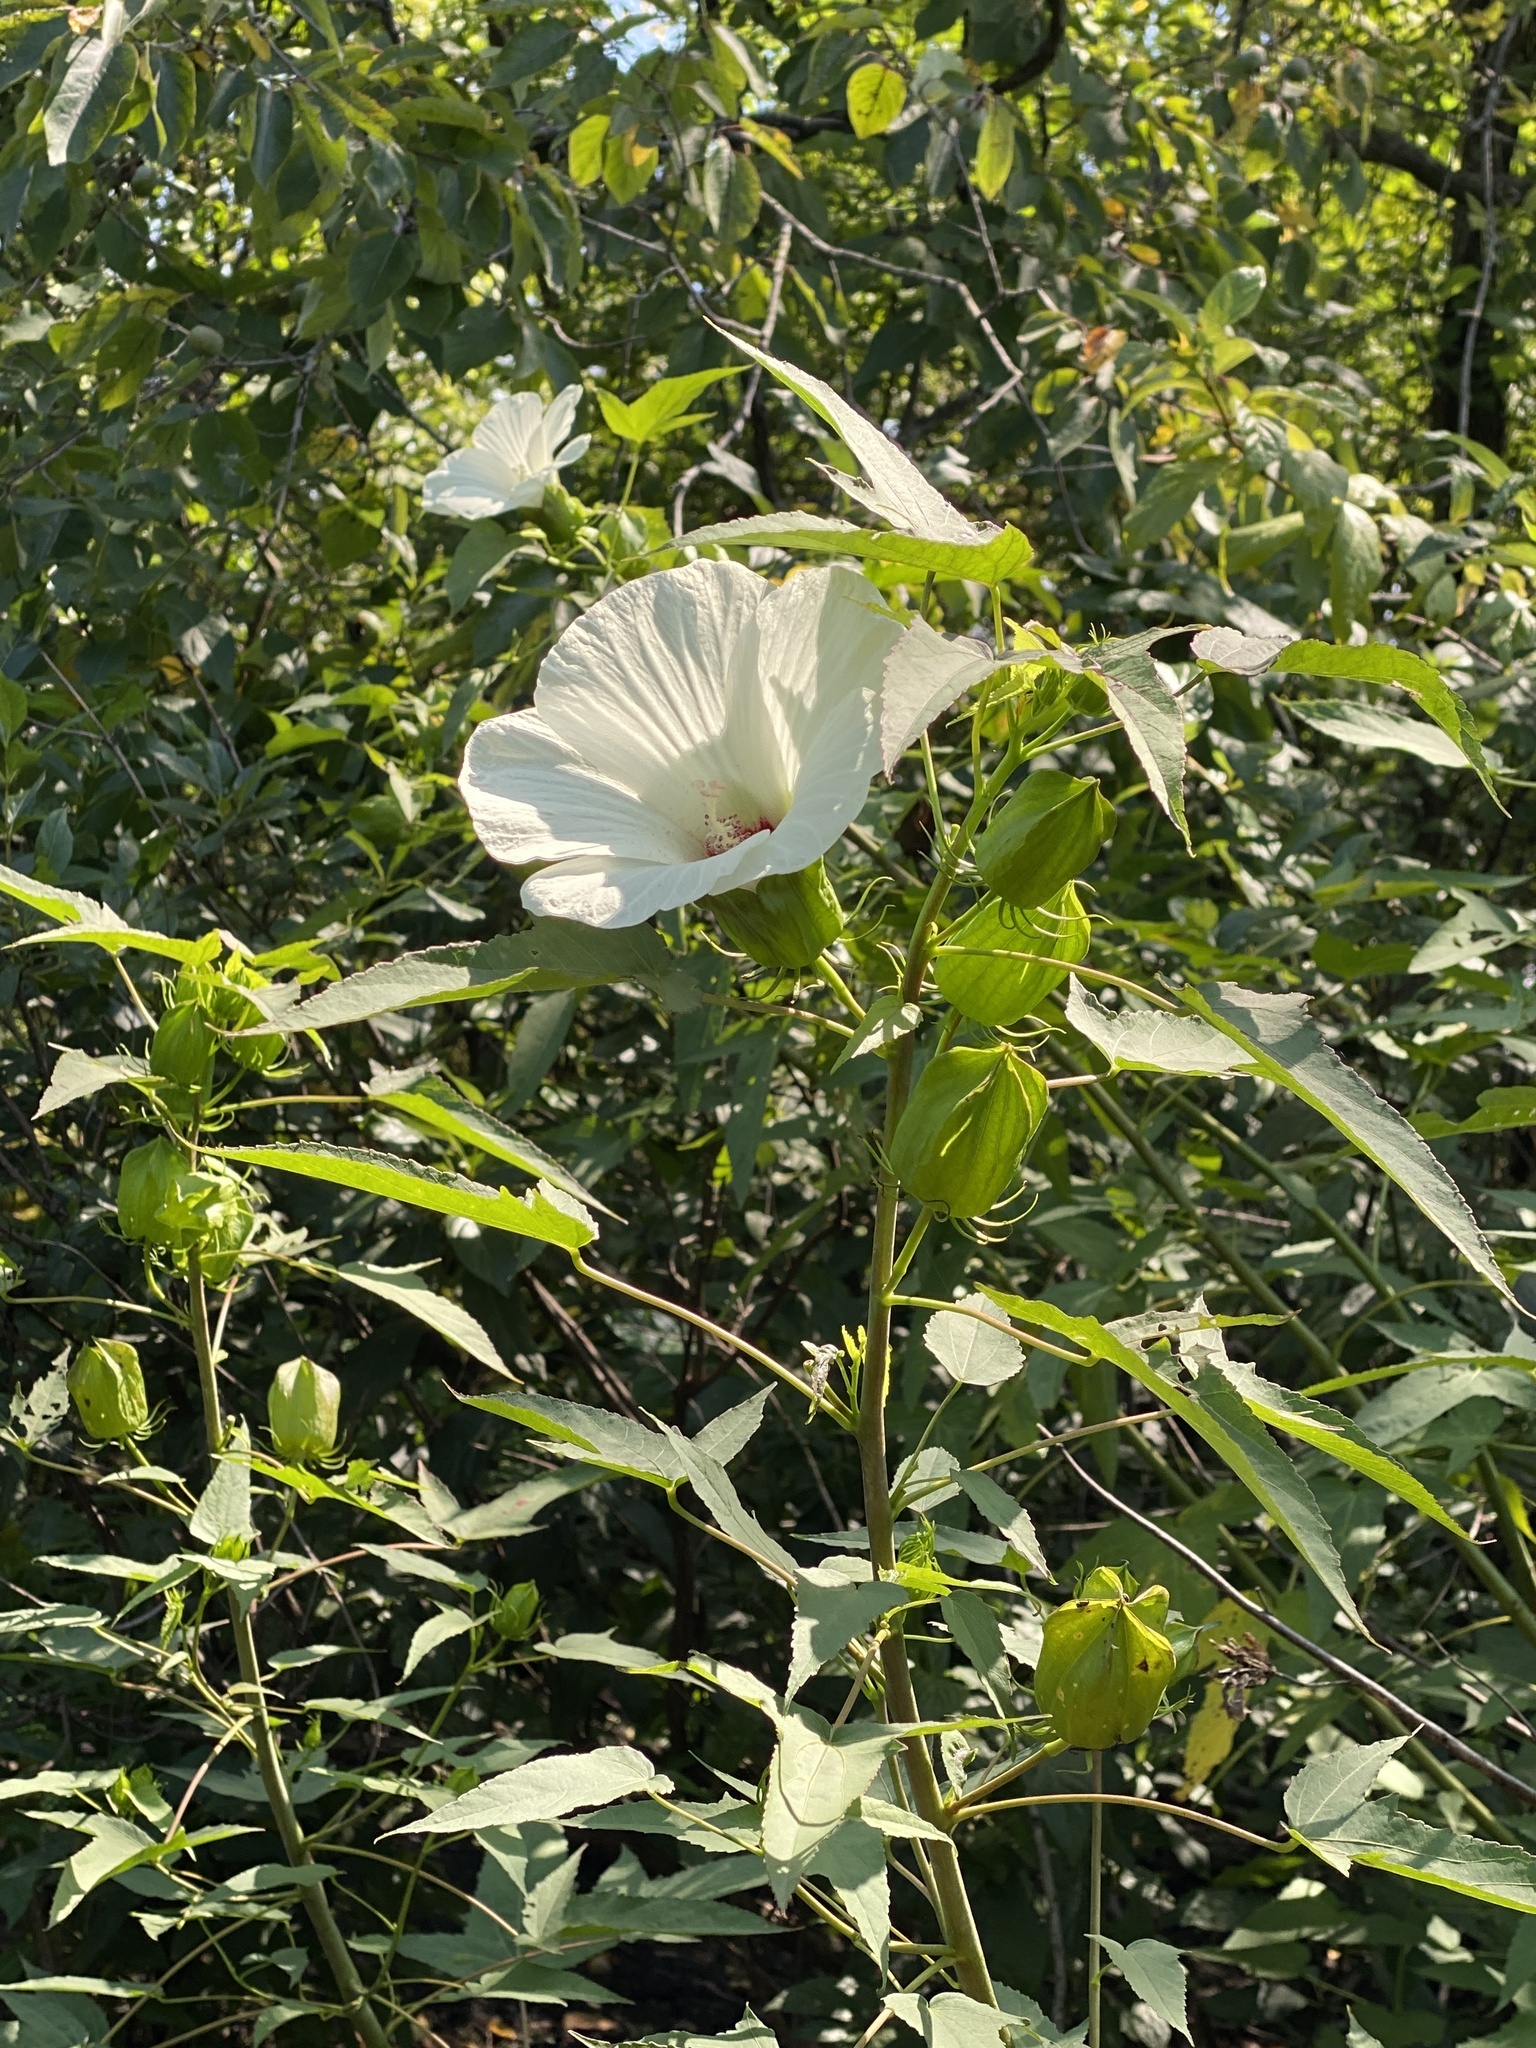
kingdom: Plantae
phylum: Tracheophyta
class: Magnoliopsida
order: Malvales
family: Malvaceae
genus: Hibiscus
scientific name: Hibiscus laevis
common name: Scarlet rose-mallow
